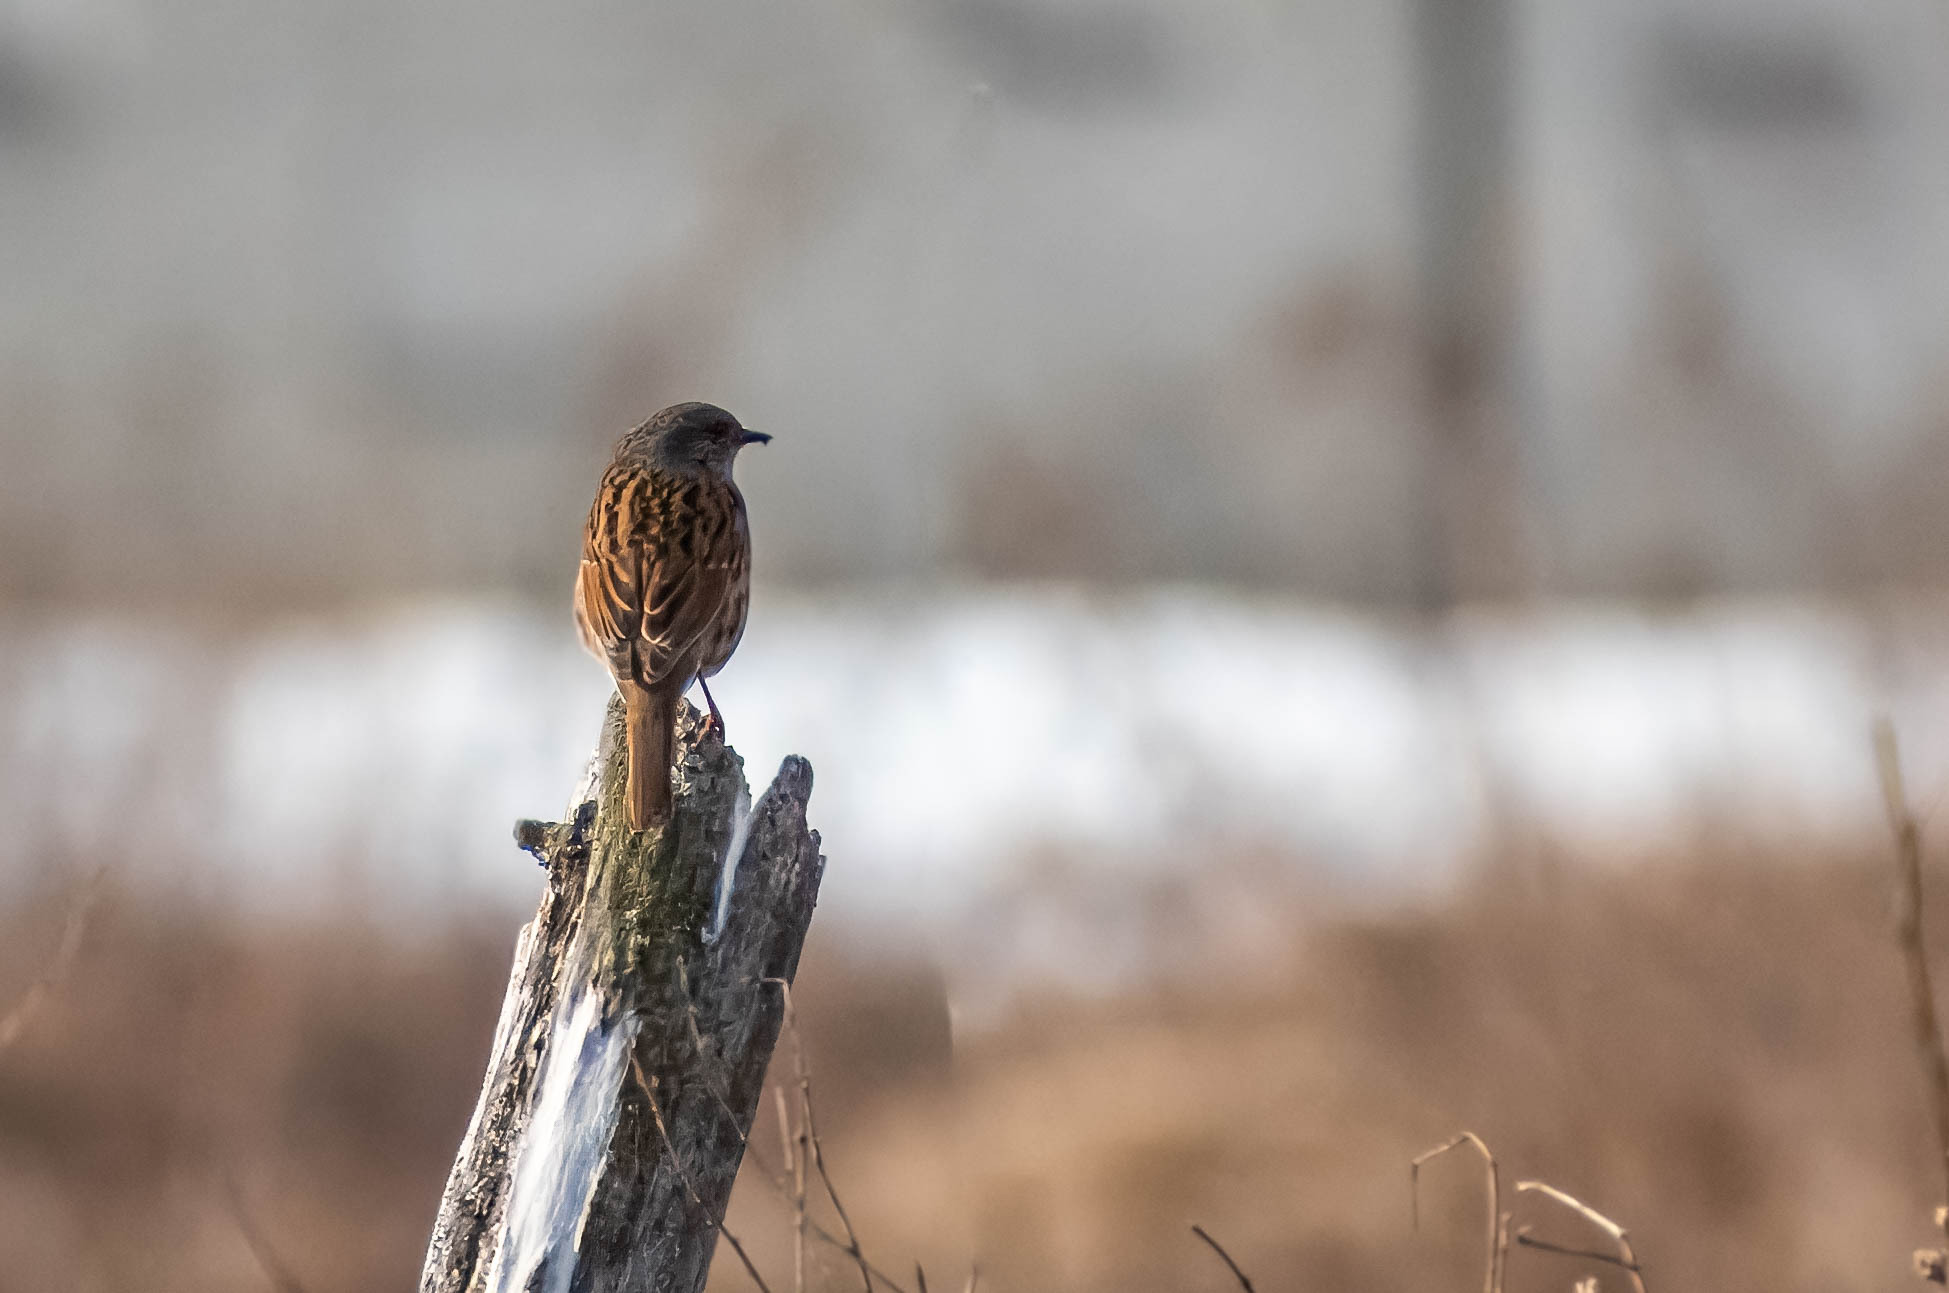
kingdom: Animalia
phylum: Chordata
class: Aves
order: Passeriformes
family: Prunellidae
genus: Prunella
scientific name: Prunella modularis
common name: Dunnock
